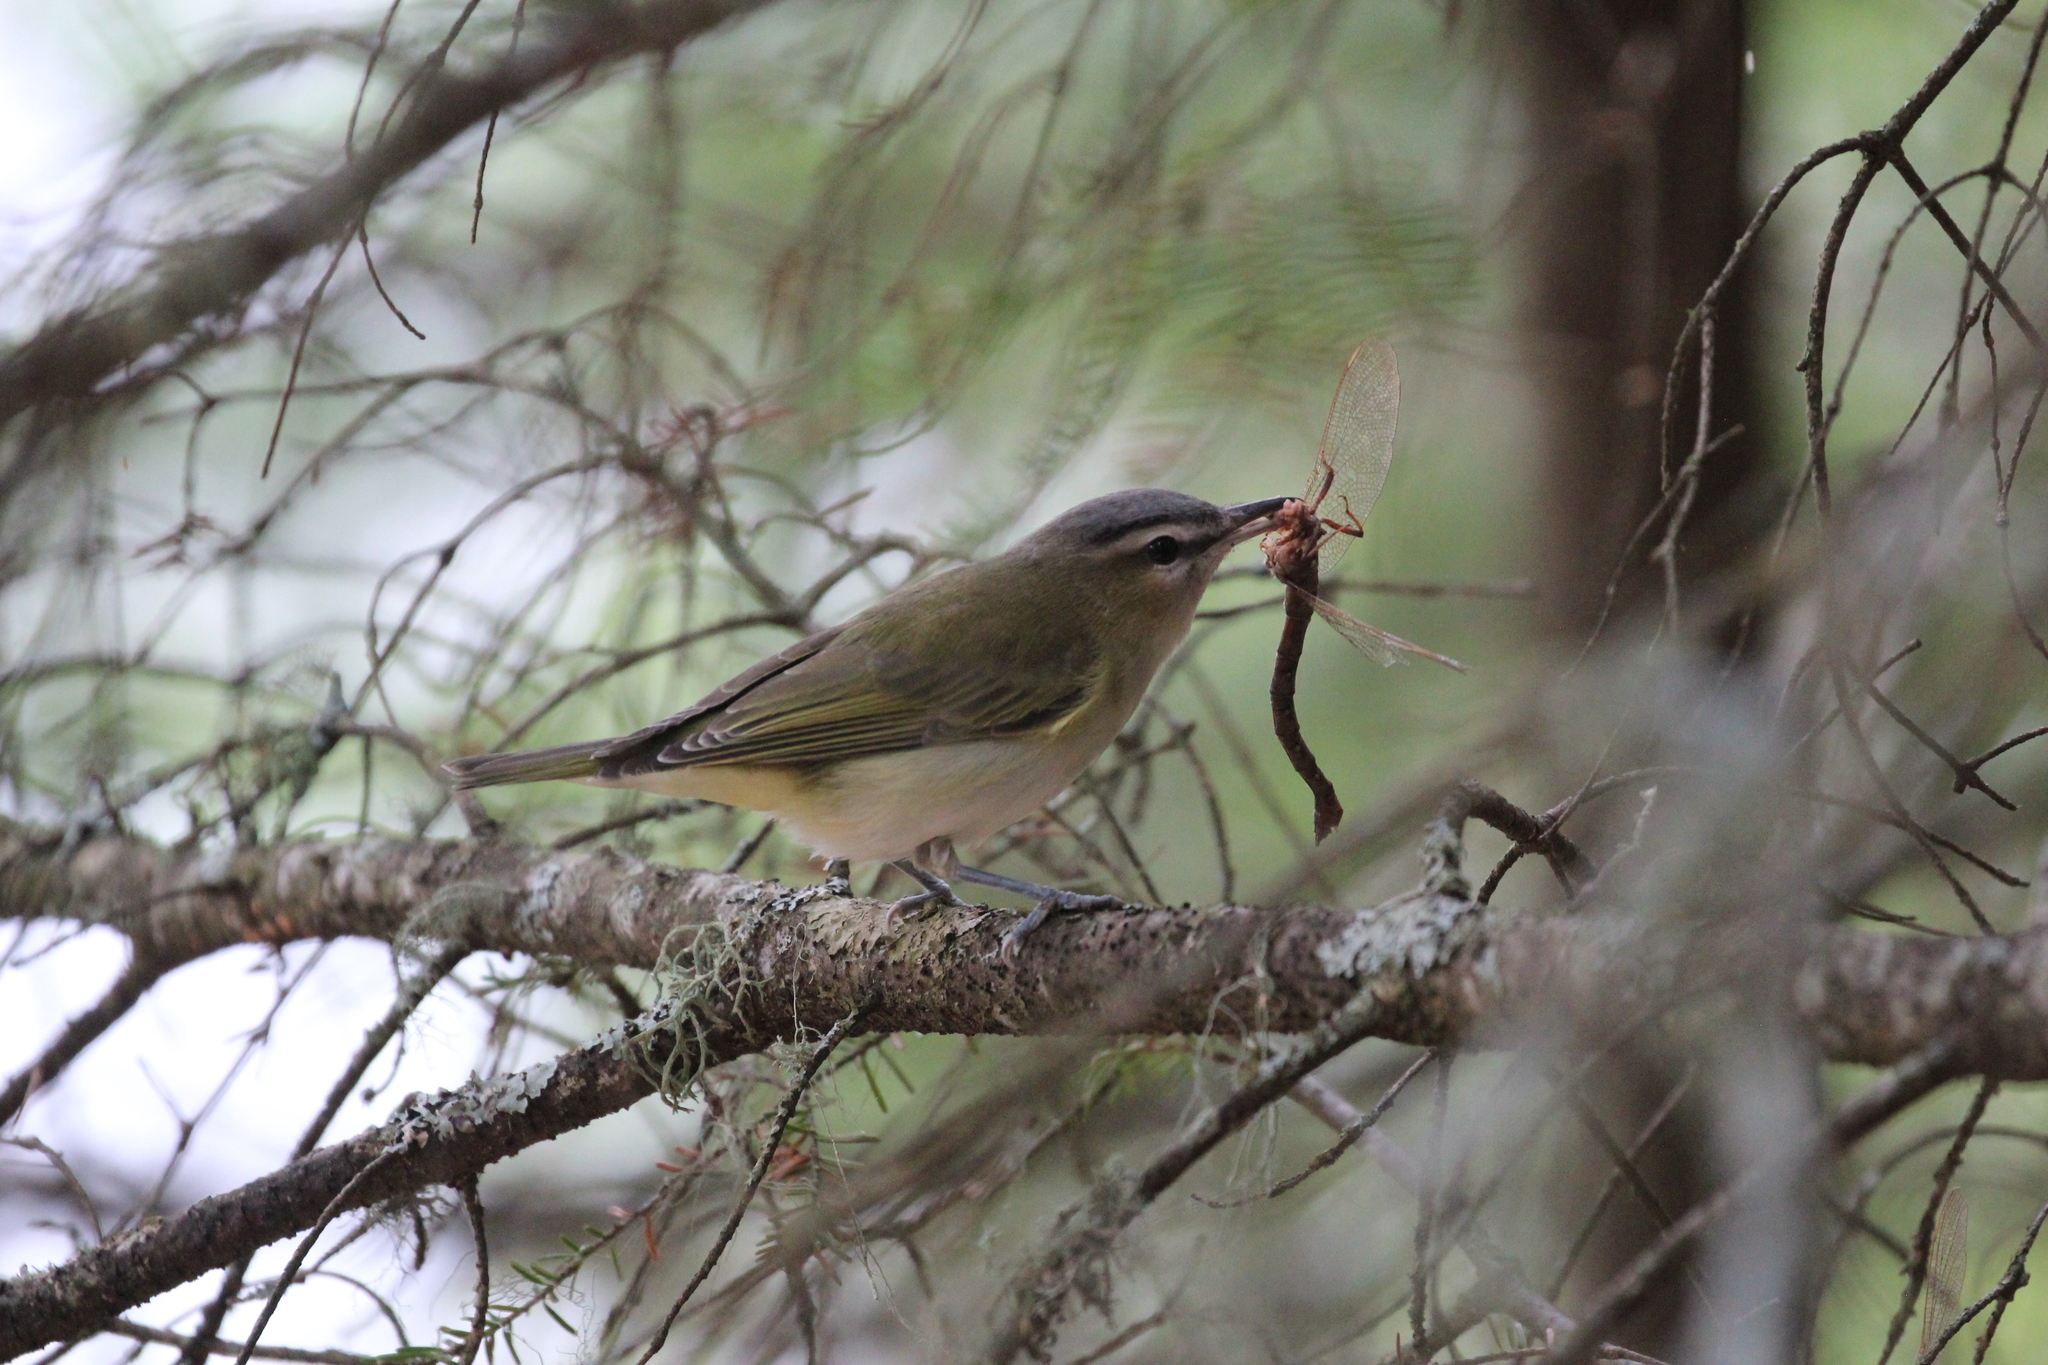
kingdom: Animalia
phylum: Chordata
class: Aves
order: Passeriformes
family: Vireonidae
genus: Vireo
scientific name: Vireo olivaceus
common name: Red-eyed vireo
